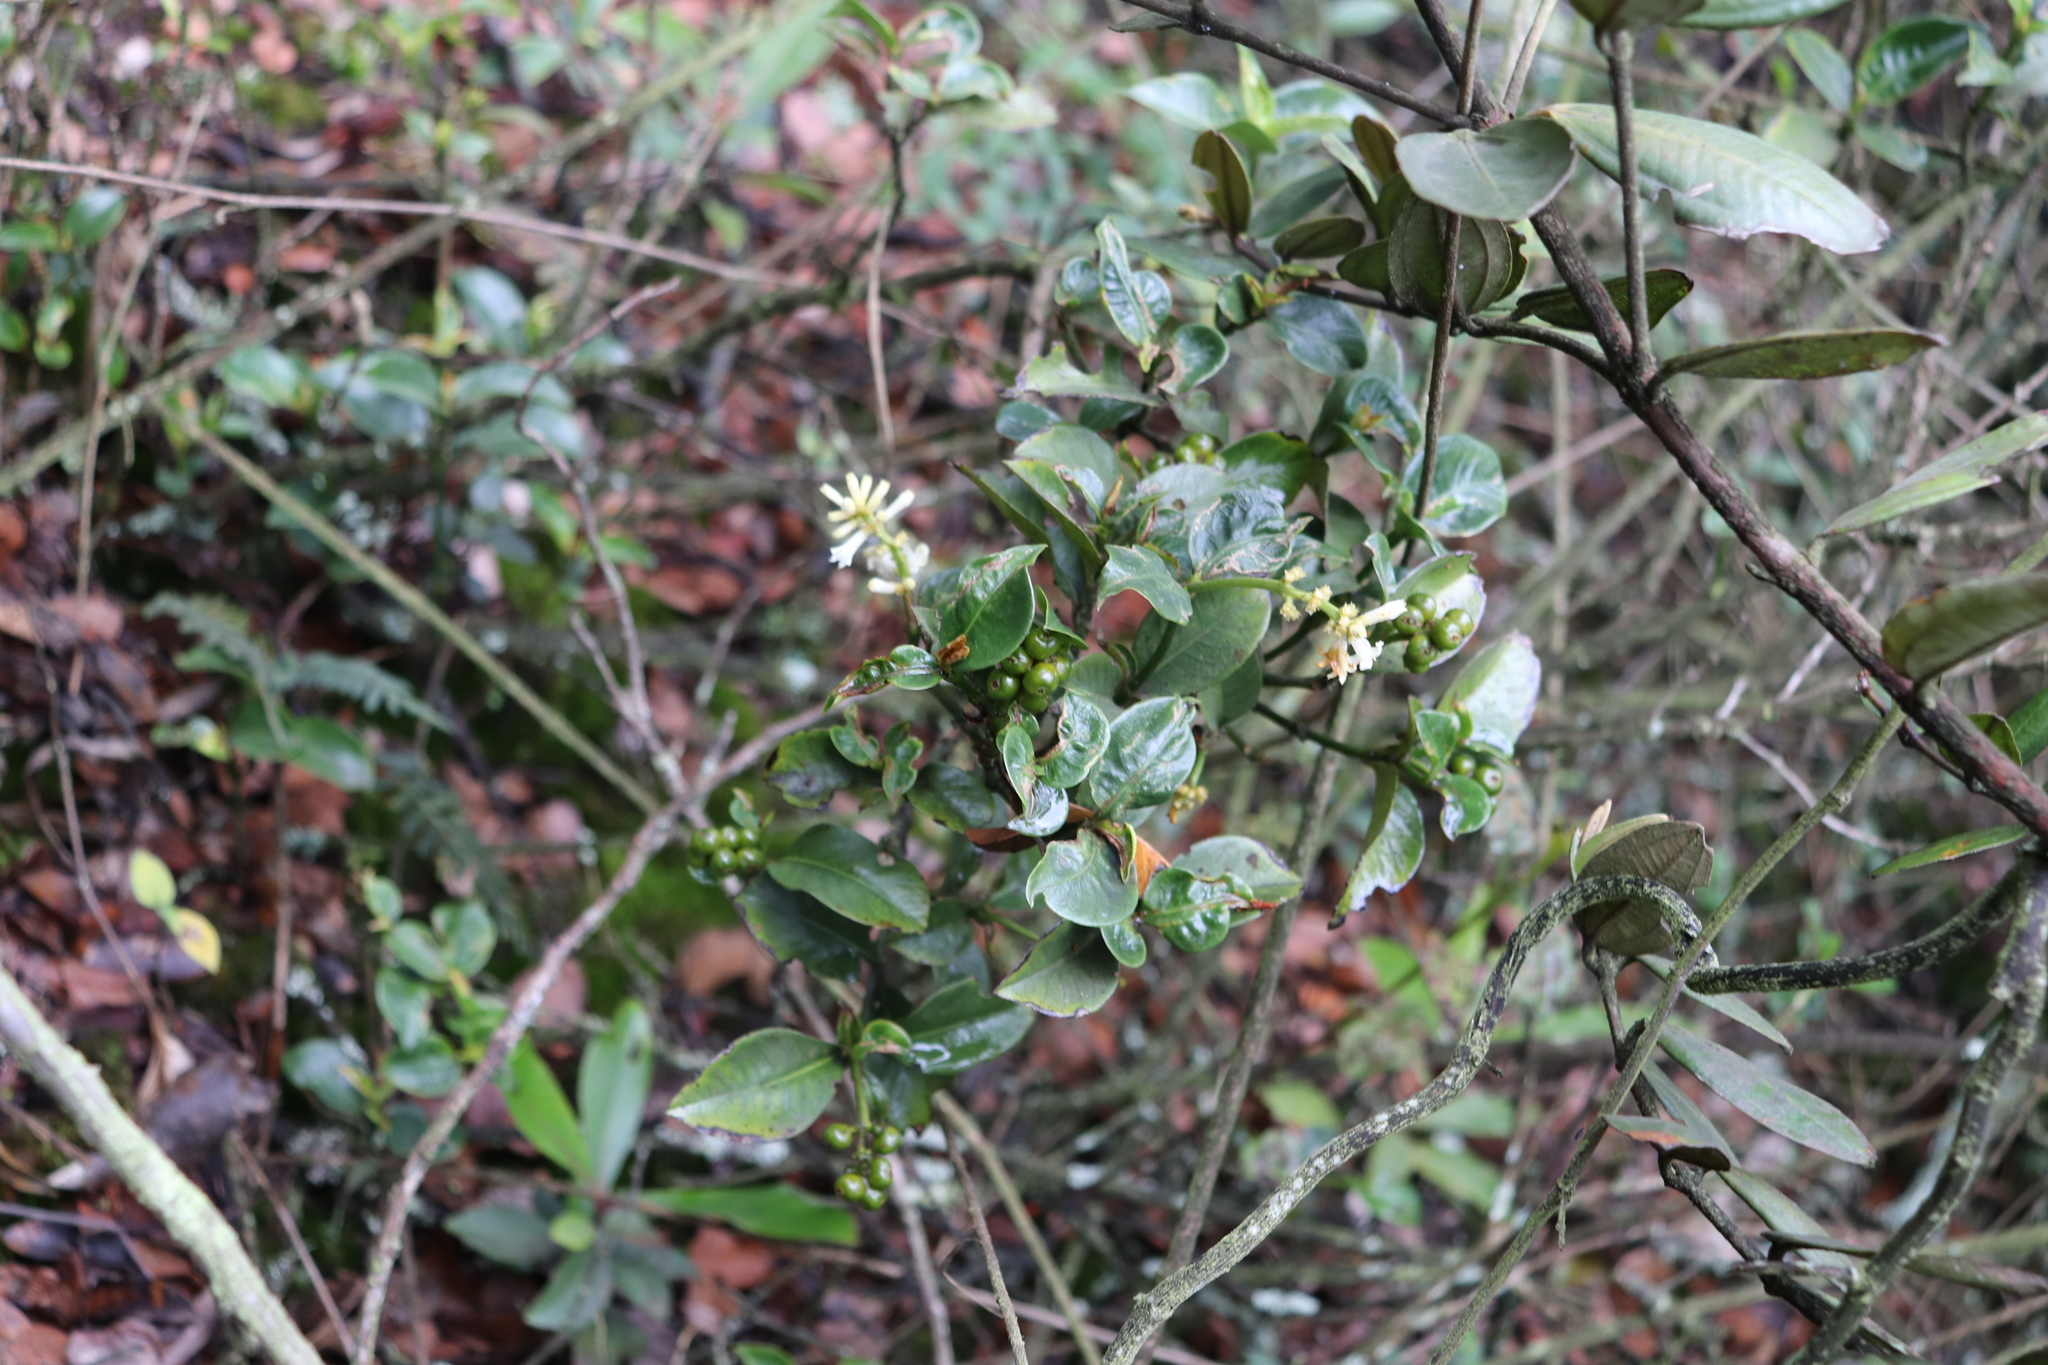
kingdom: Plantae
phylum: Tracheophyta
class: Magnoliopsida
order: Gentianales
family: Rubiaceae
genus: Palicourea
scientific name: Palicourea boqueronensis
